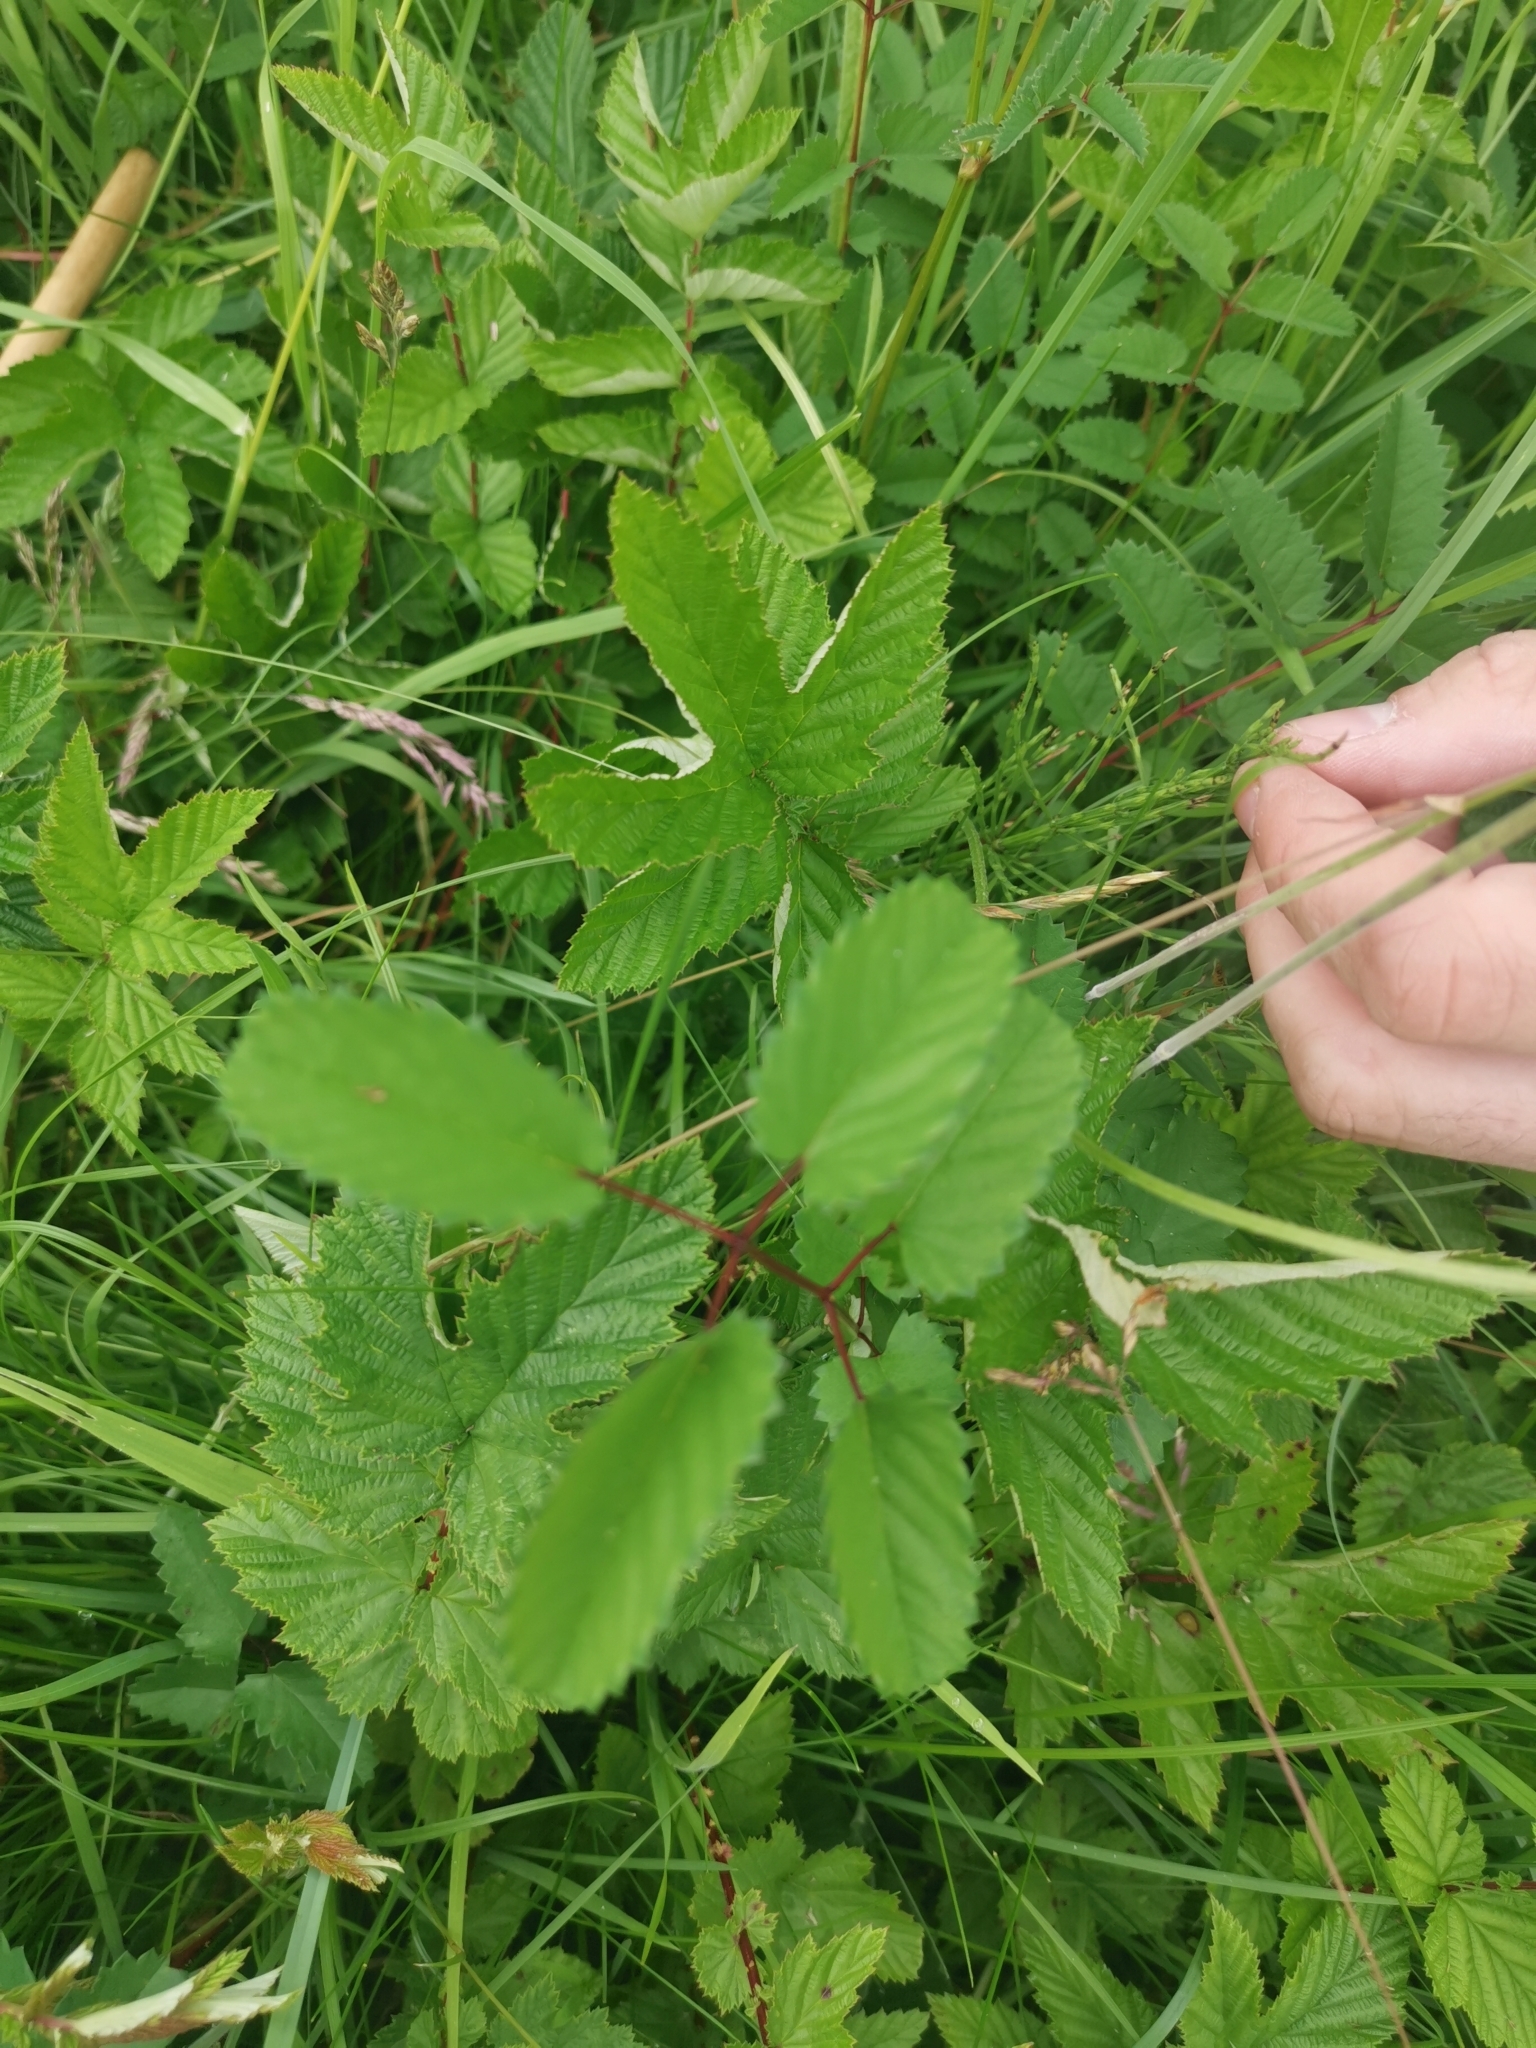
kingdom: Plantae
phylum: Tracheophyta
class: Magnoliopsida
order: Rosales
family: Rosaceae
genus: Sanguisorba
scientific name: Sanguisorba officinalis
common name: Great burnet
